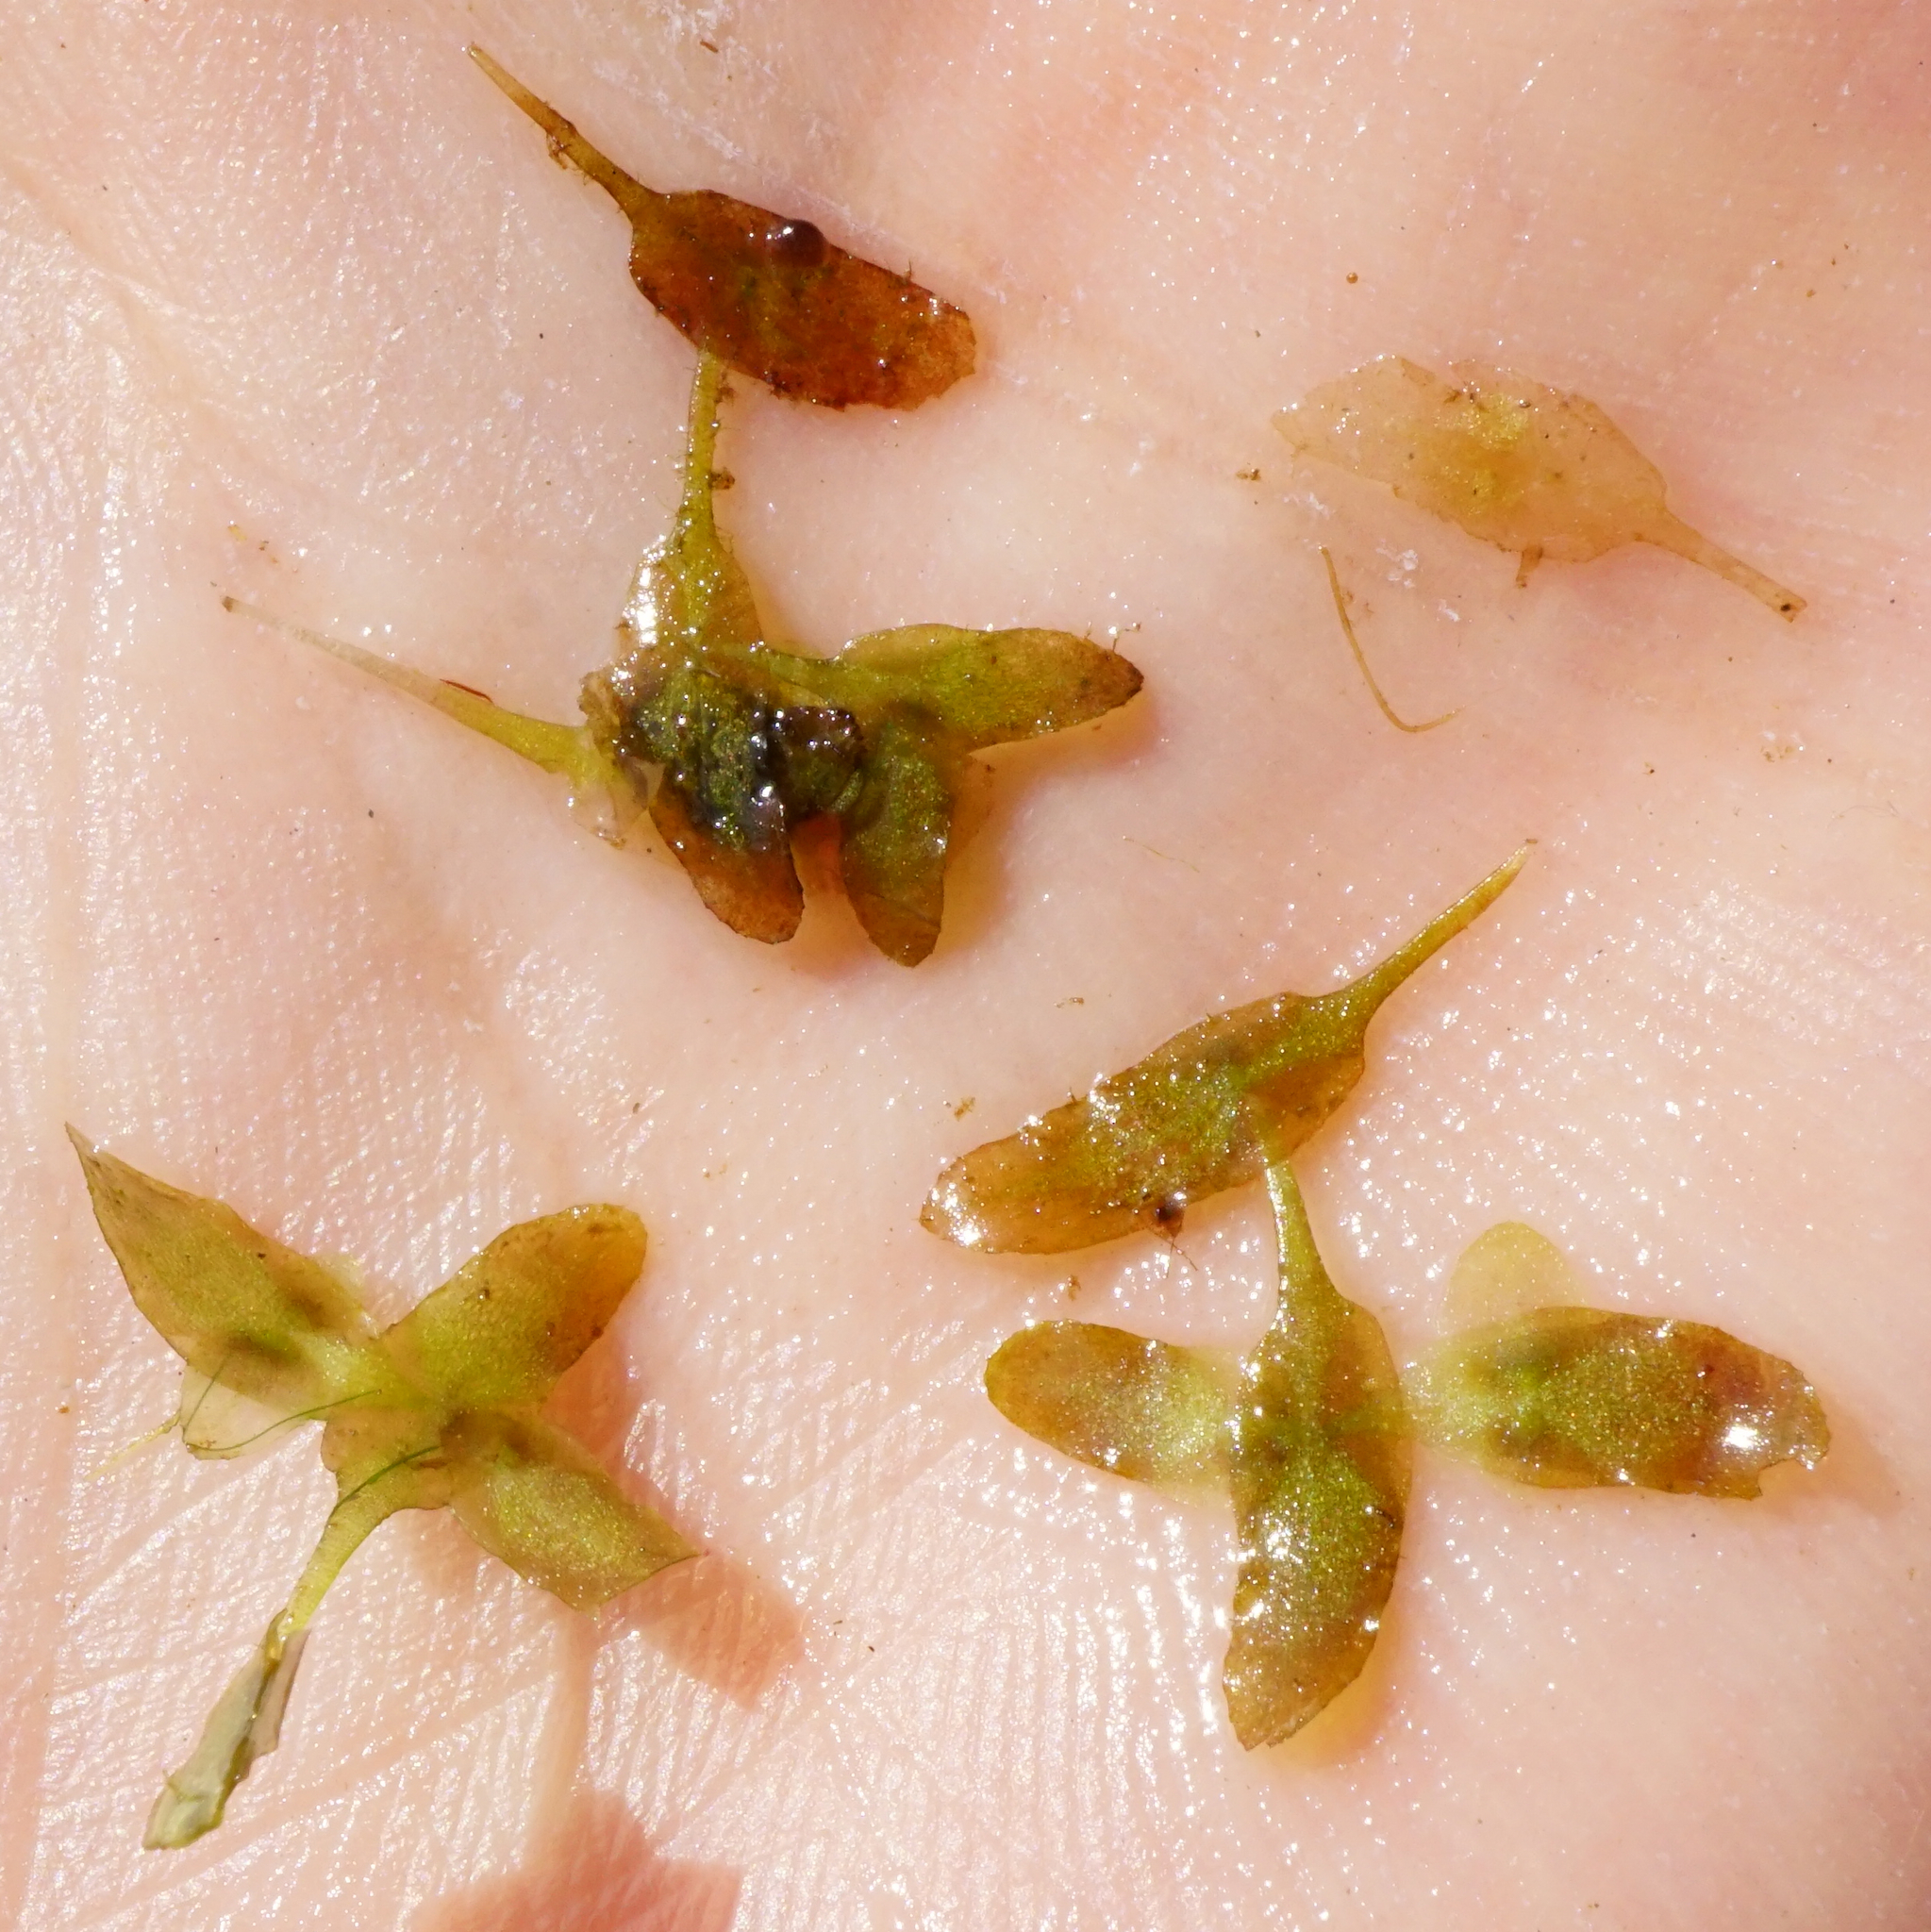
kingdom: Plantae
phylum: Tracheophyta
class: Liliopsida
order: Alismatales
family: Araceae
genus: Lemna
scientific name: Lemna trisulca
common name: Ivy-leaved duckweed
